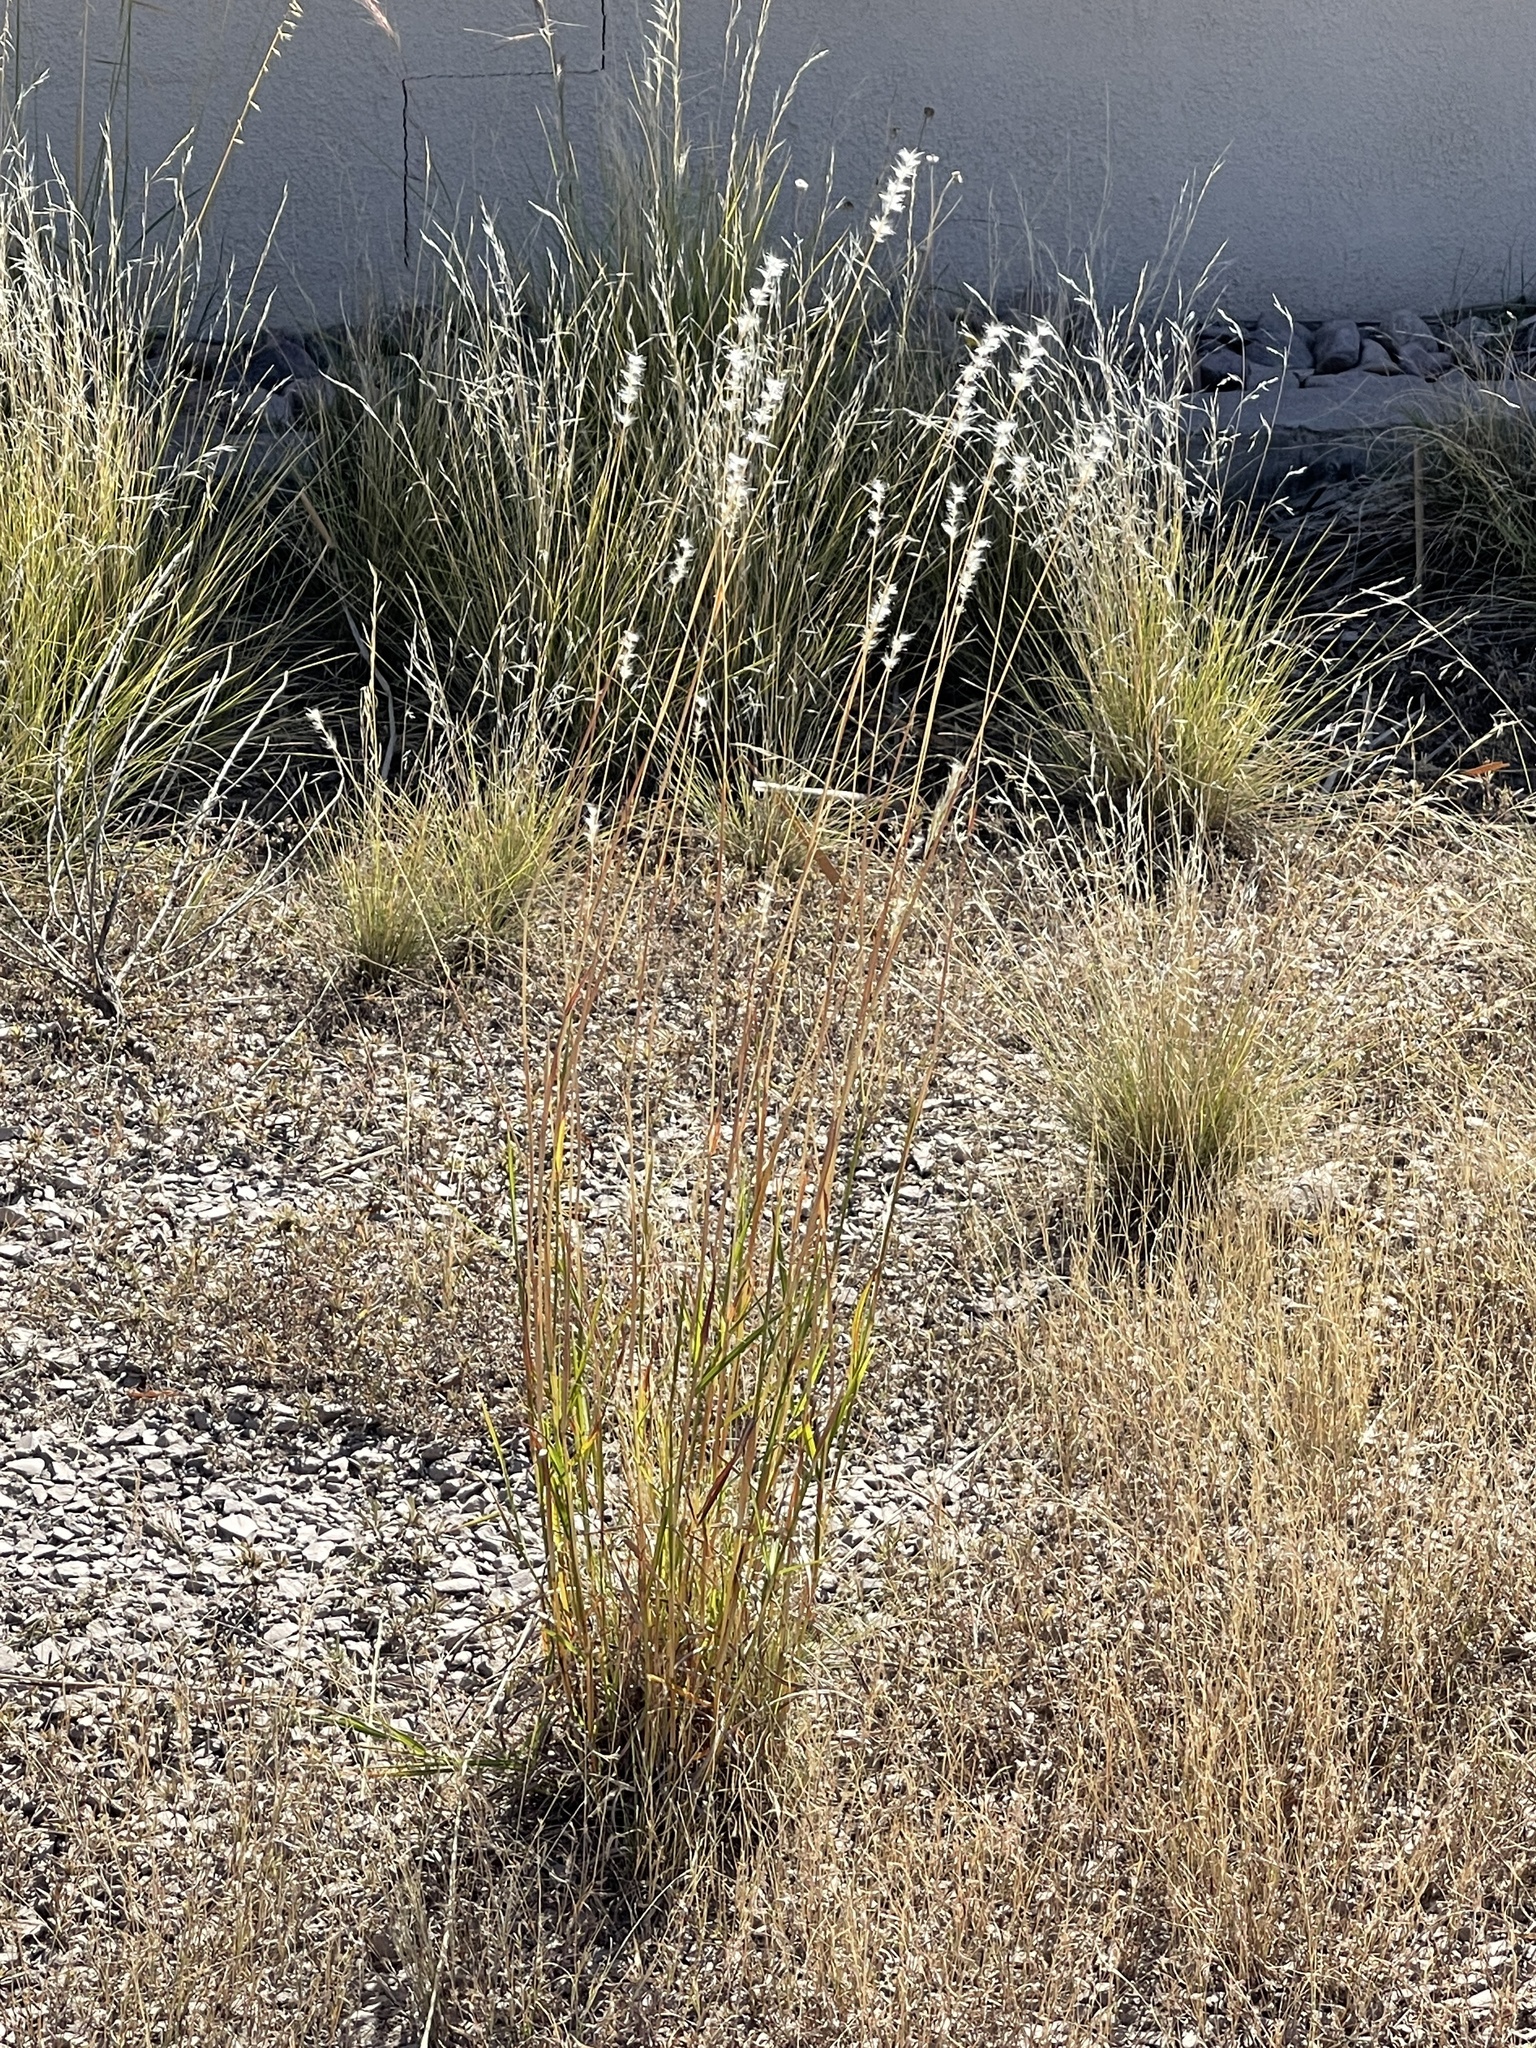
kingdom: Plantae
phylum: Tracheophyta
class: Liliopsida
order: Poales
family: Poaceae
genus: Bothriochloa
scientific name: Bothriochloa barbinodis
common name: Cane bluestem
